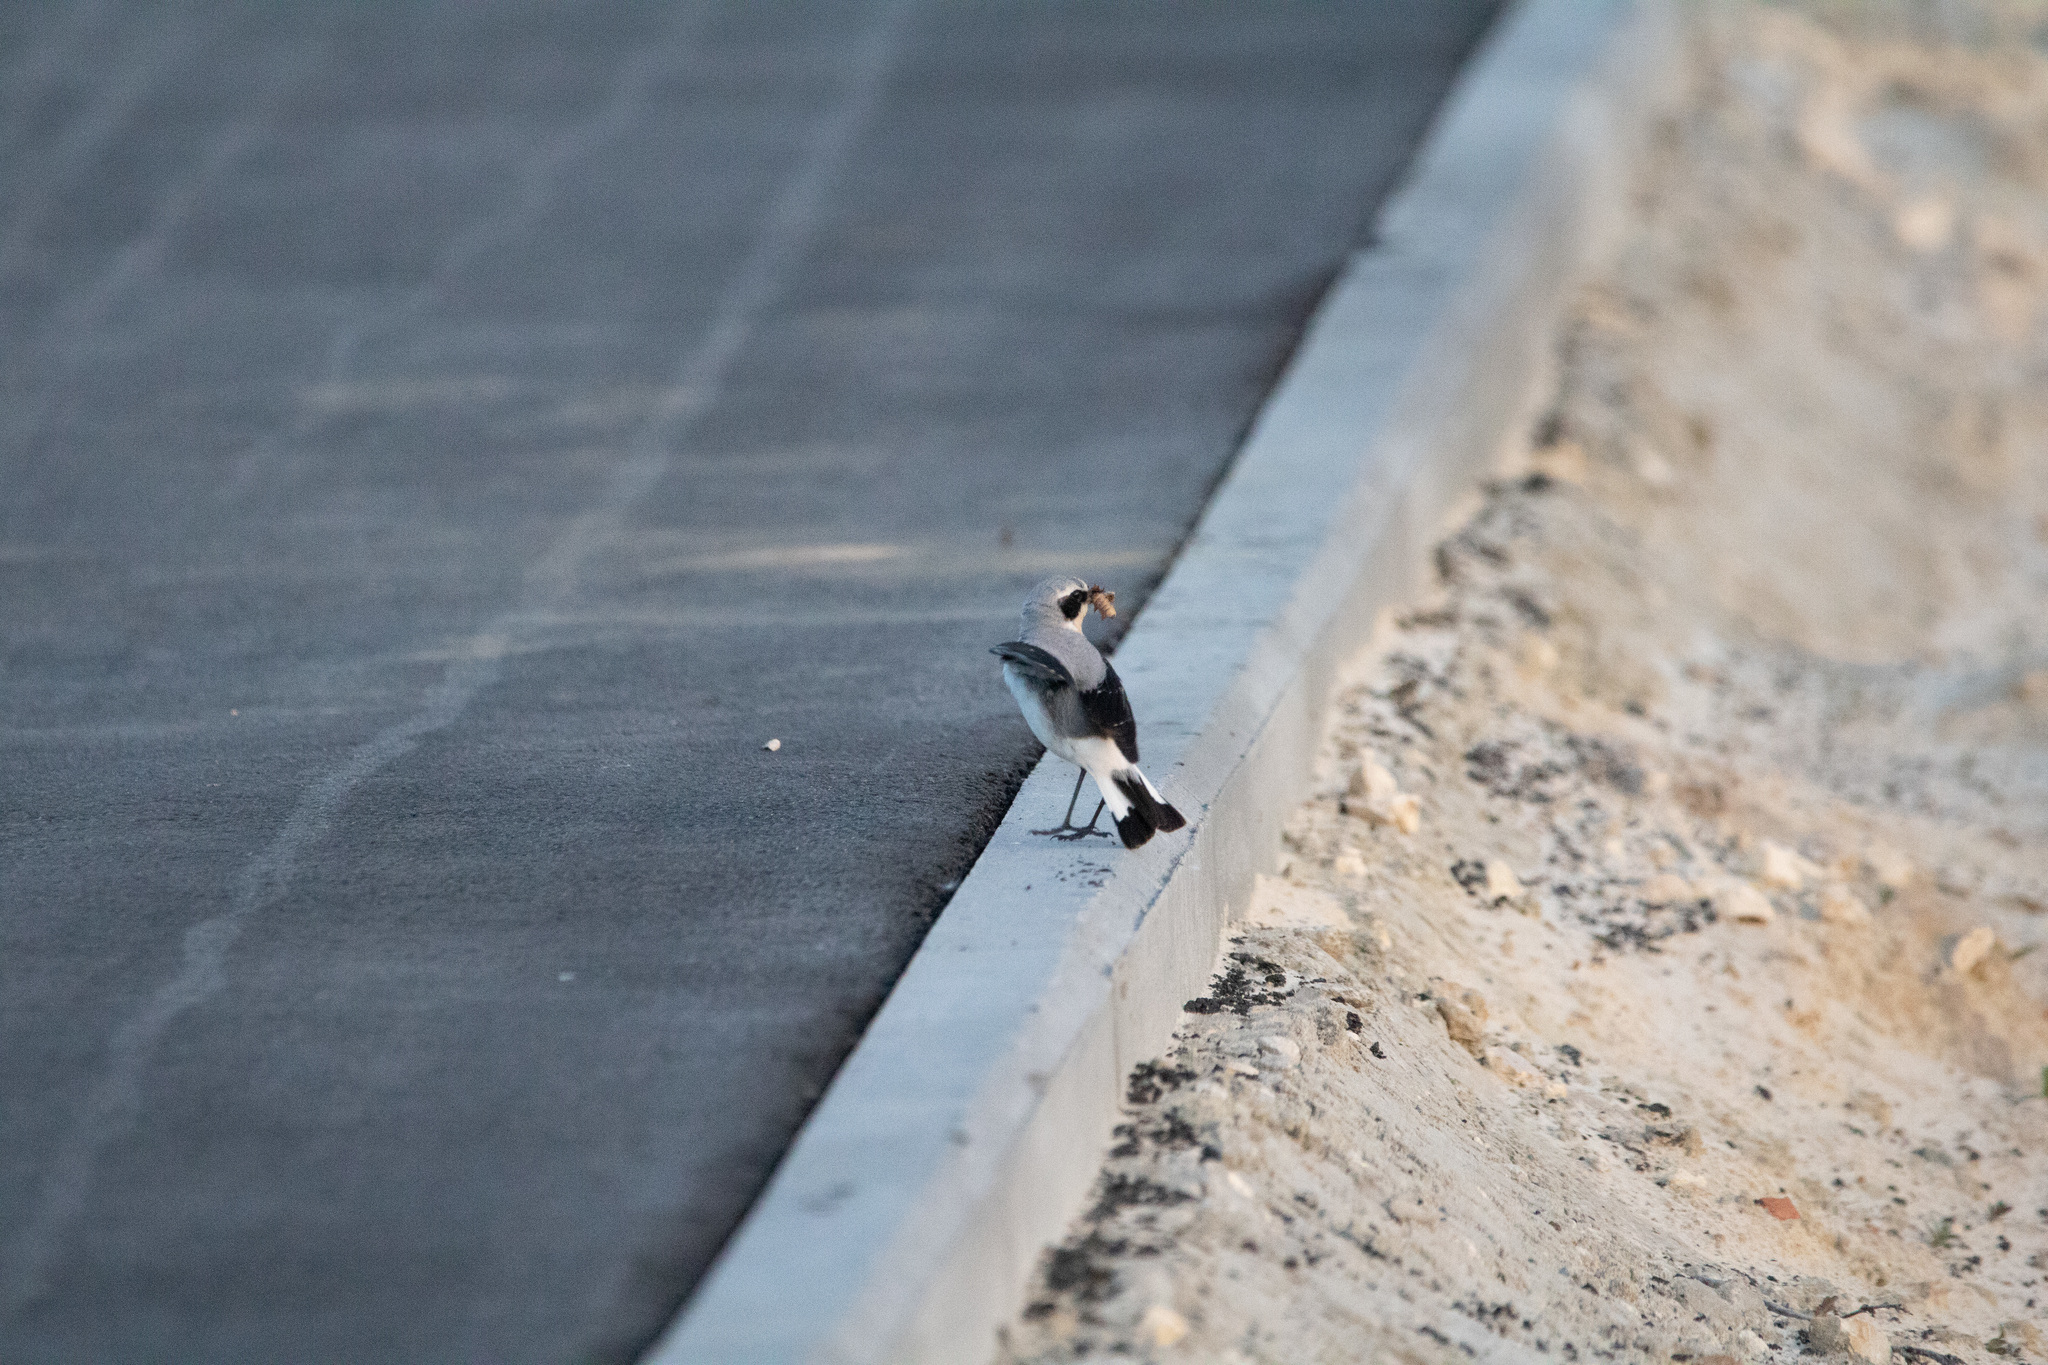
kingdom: Animalia
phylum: Chordata
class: Aves
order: Passeriformes
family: Muscicapidae
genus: Oenanthe
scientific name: Oenanthe oenanthe
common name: Northern wheatear
